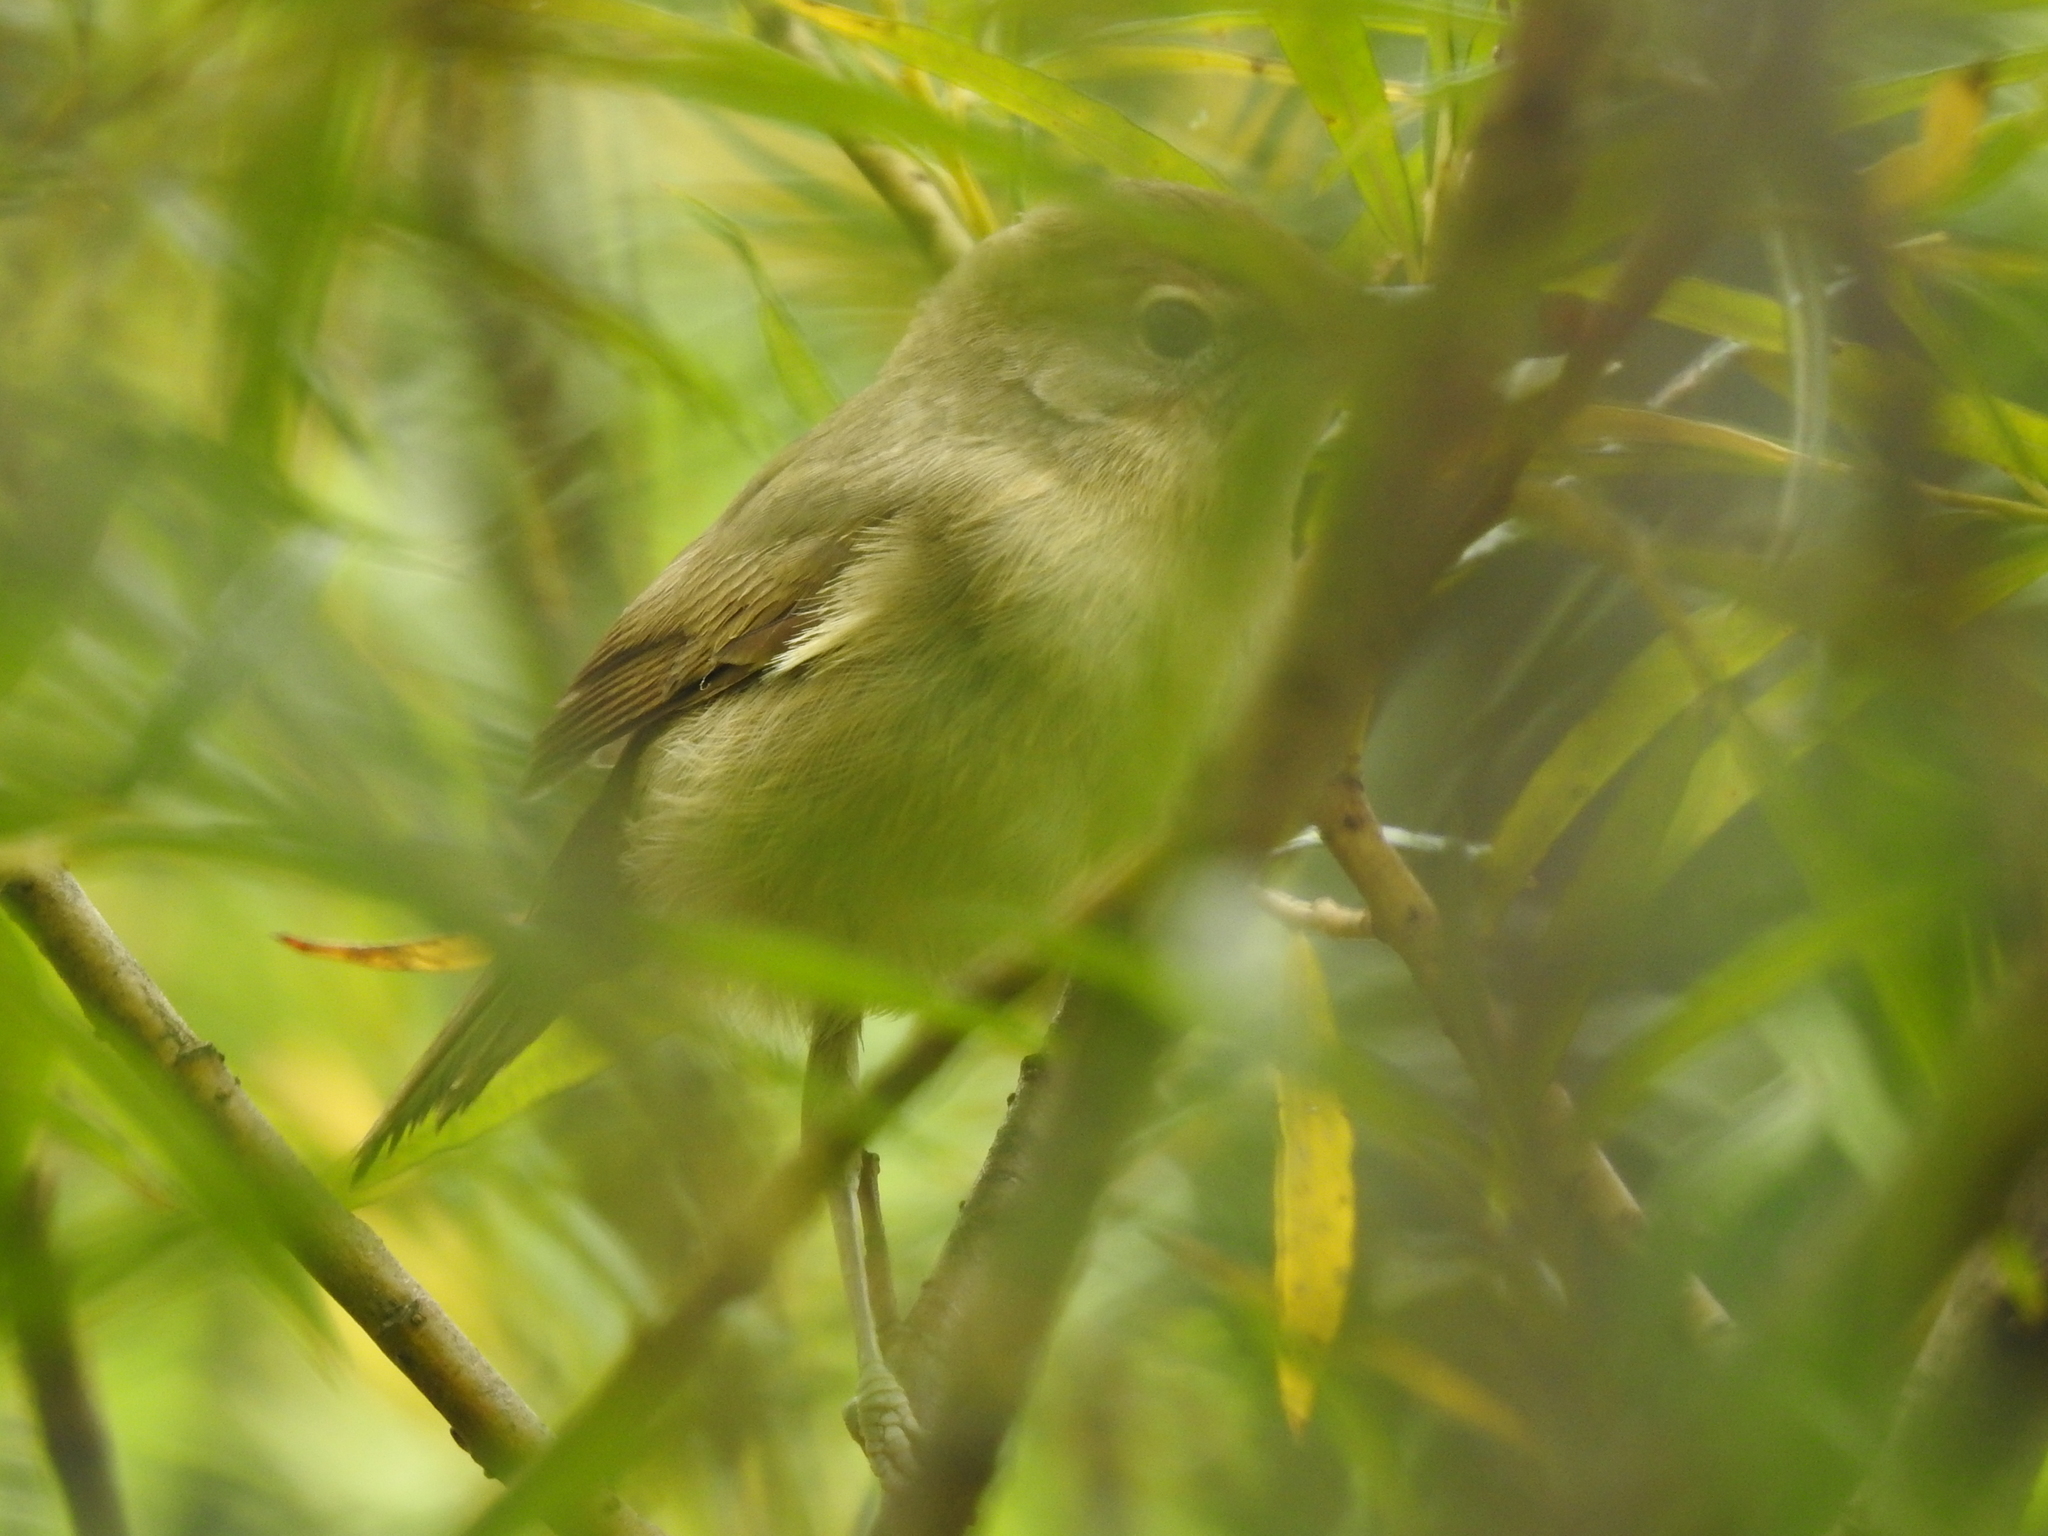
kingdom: Animalia
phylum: Chordata
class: Aves
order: Passeriformes
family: Sylviidae
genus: Sylvia
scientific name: Sylvia borin
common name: Garden warbler
